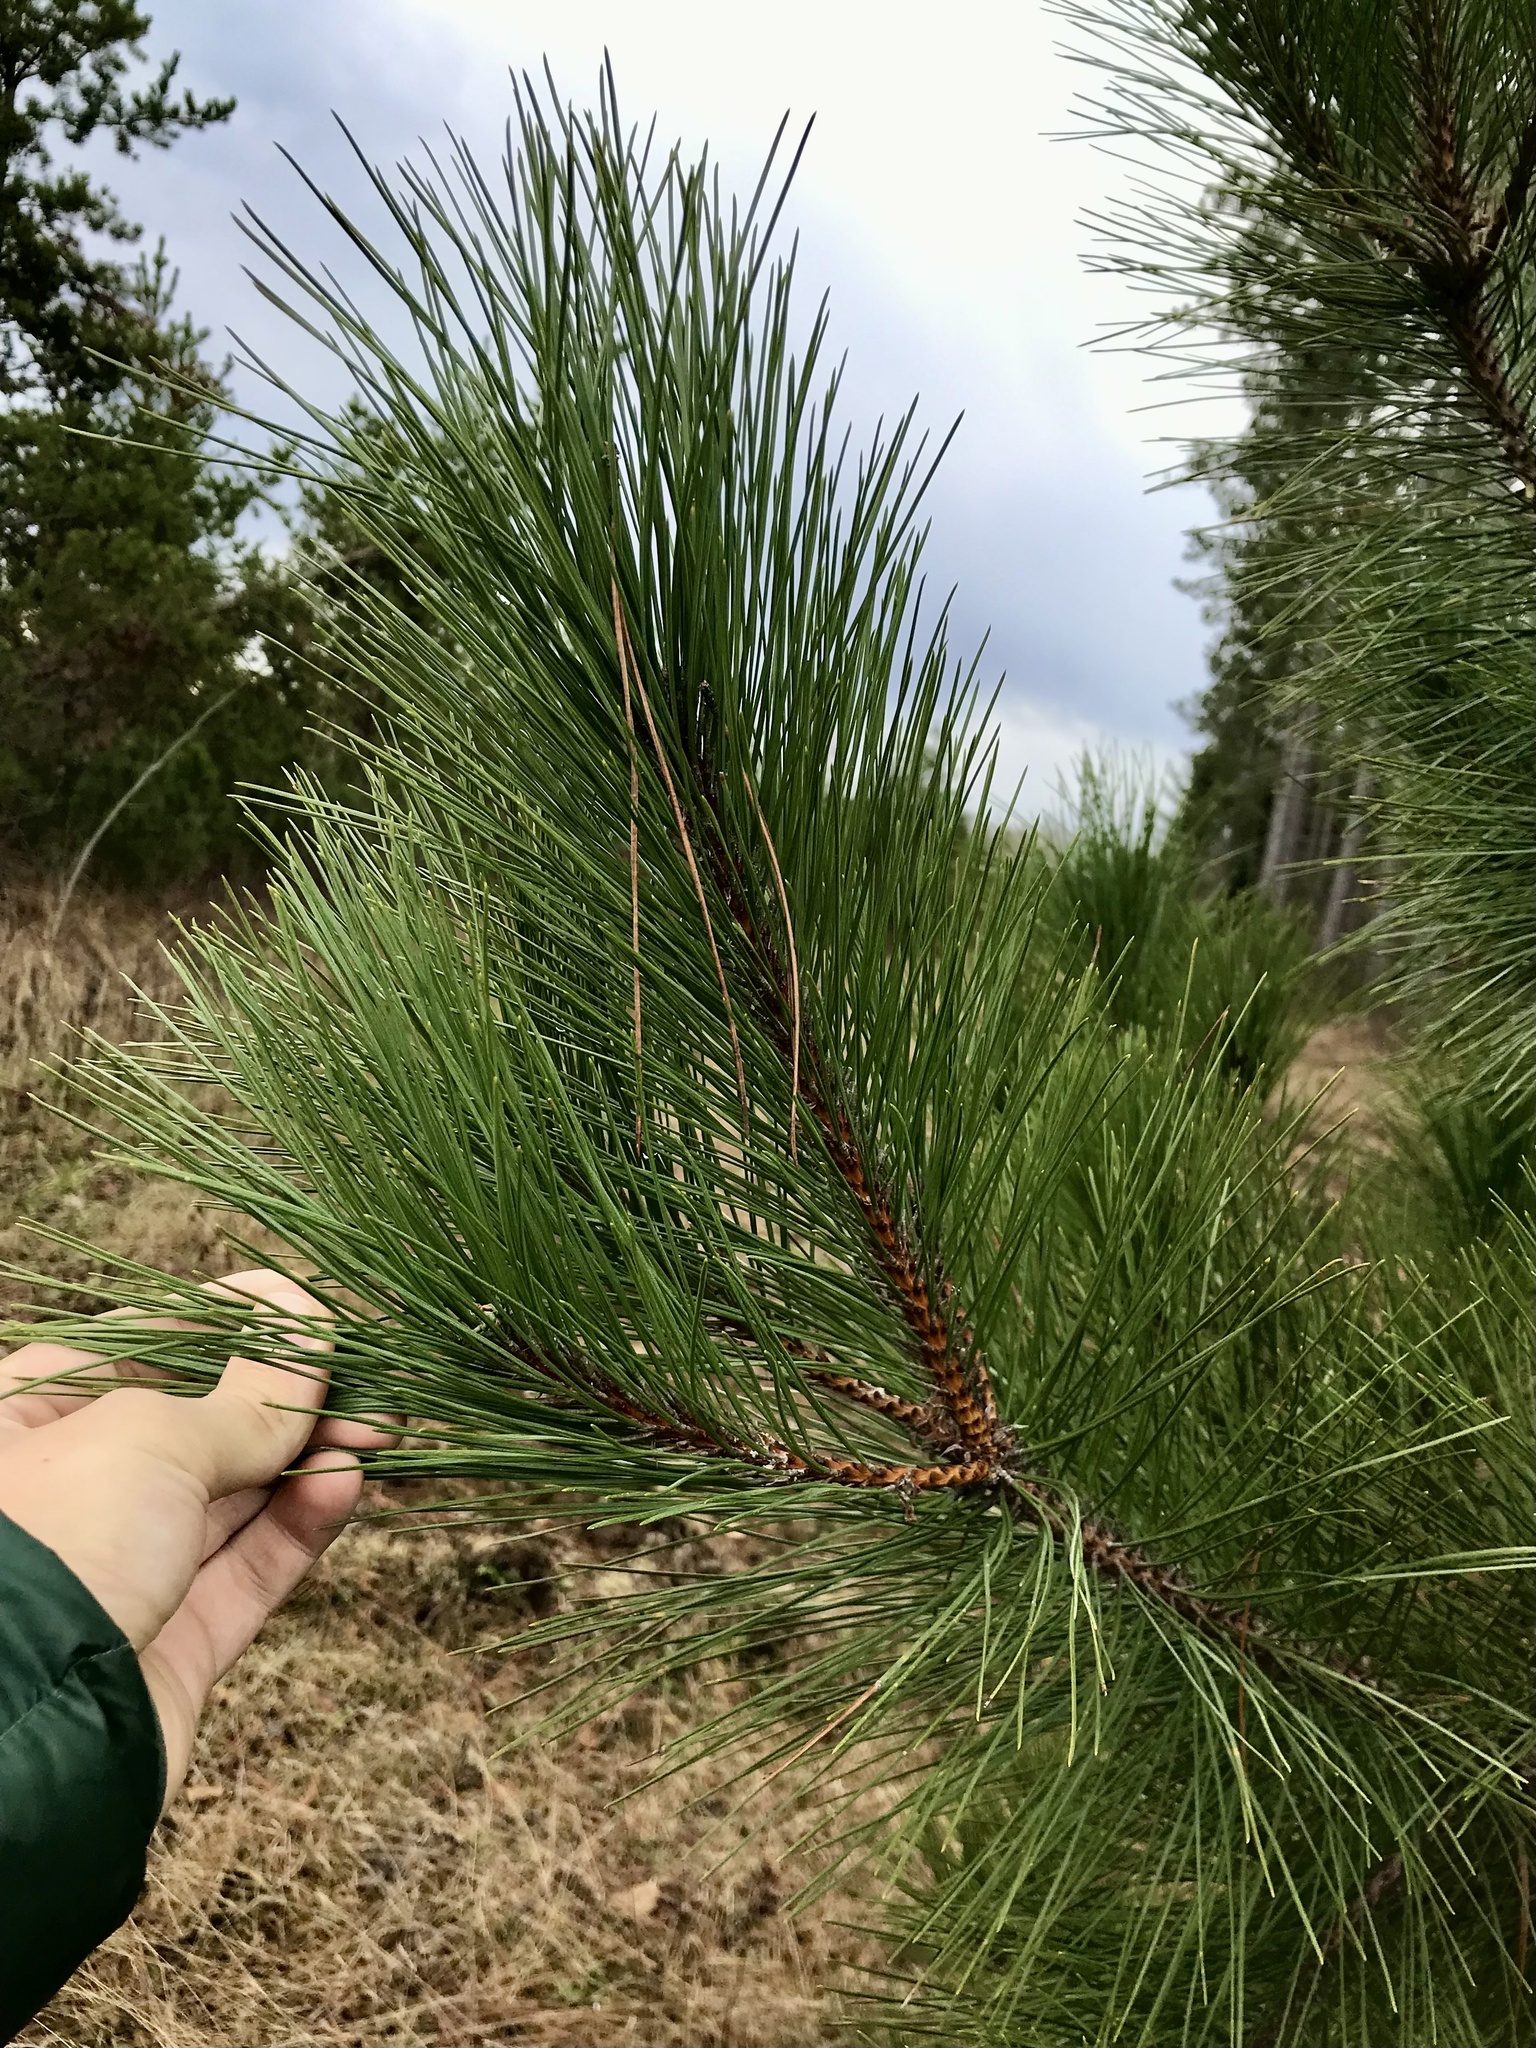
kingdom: Plantae
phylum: Tracheophyta
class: Pinopsida
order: Pinales
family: Pinaceae
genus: Pinus
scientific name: Pinus resinosa
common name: Norway pine
